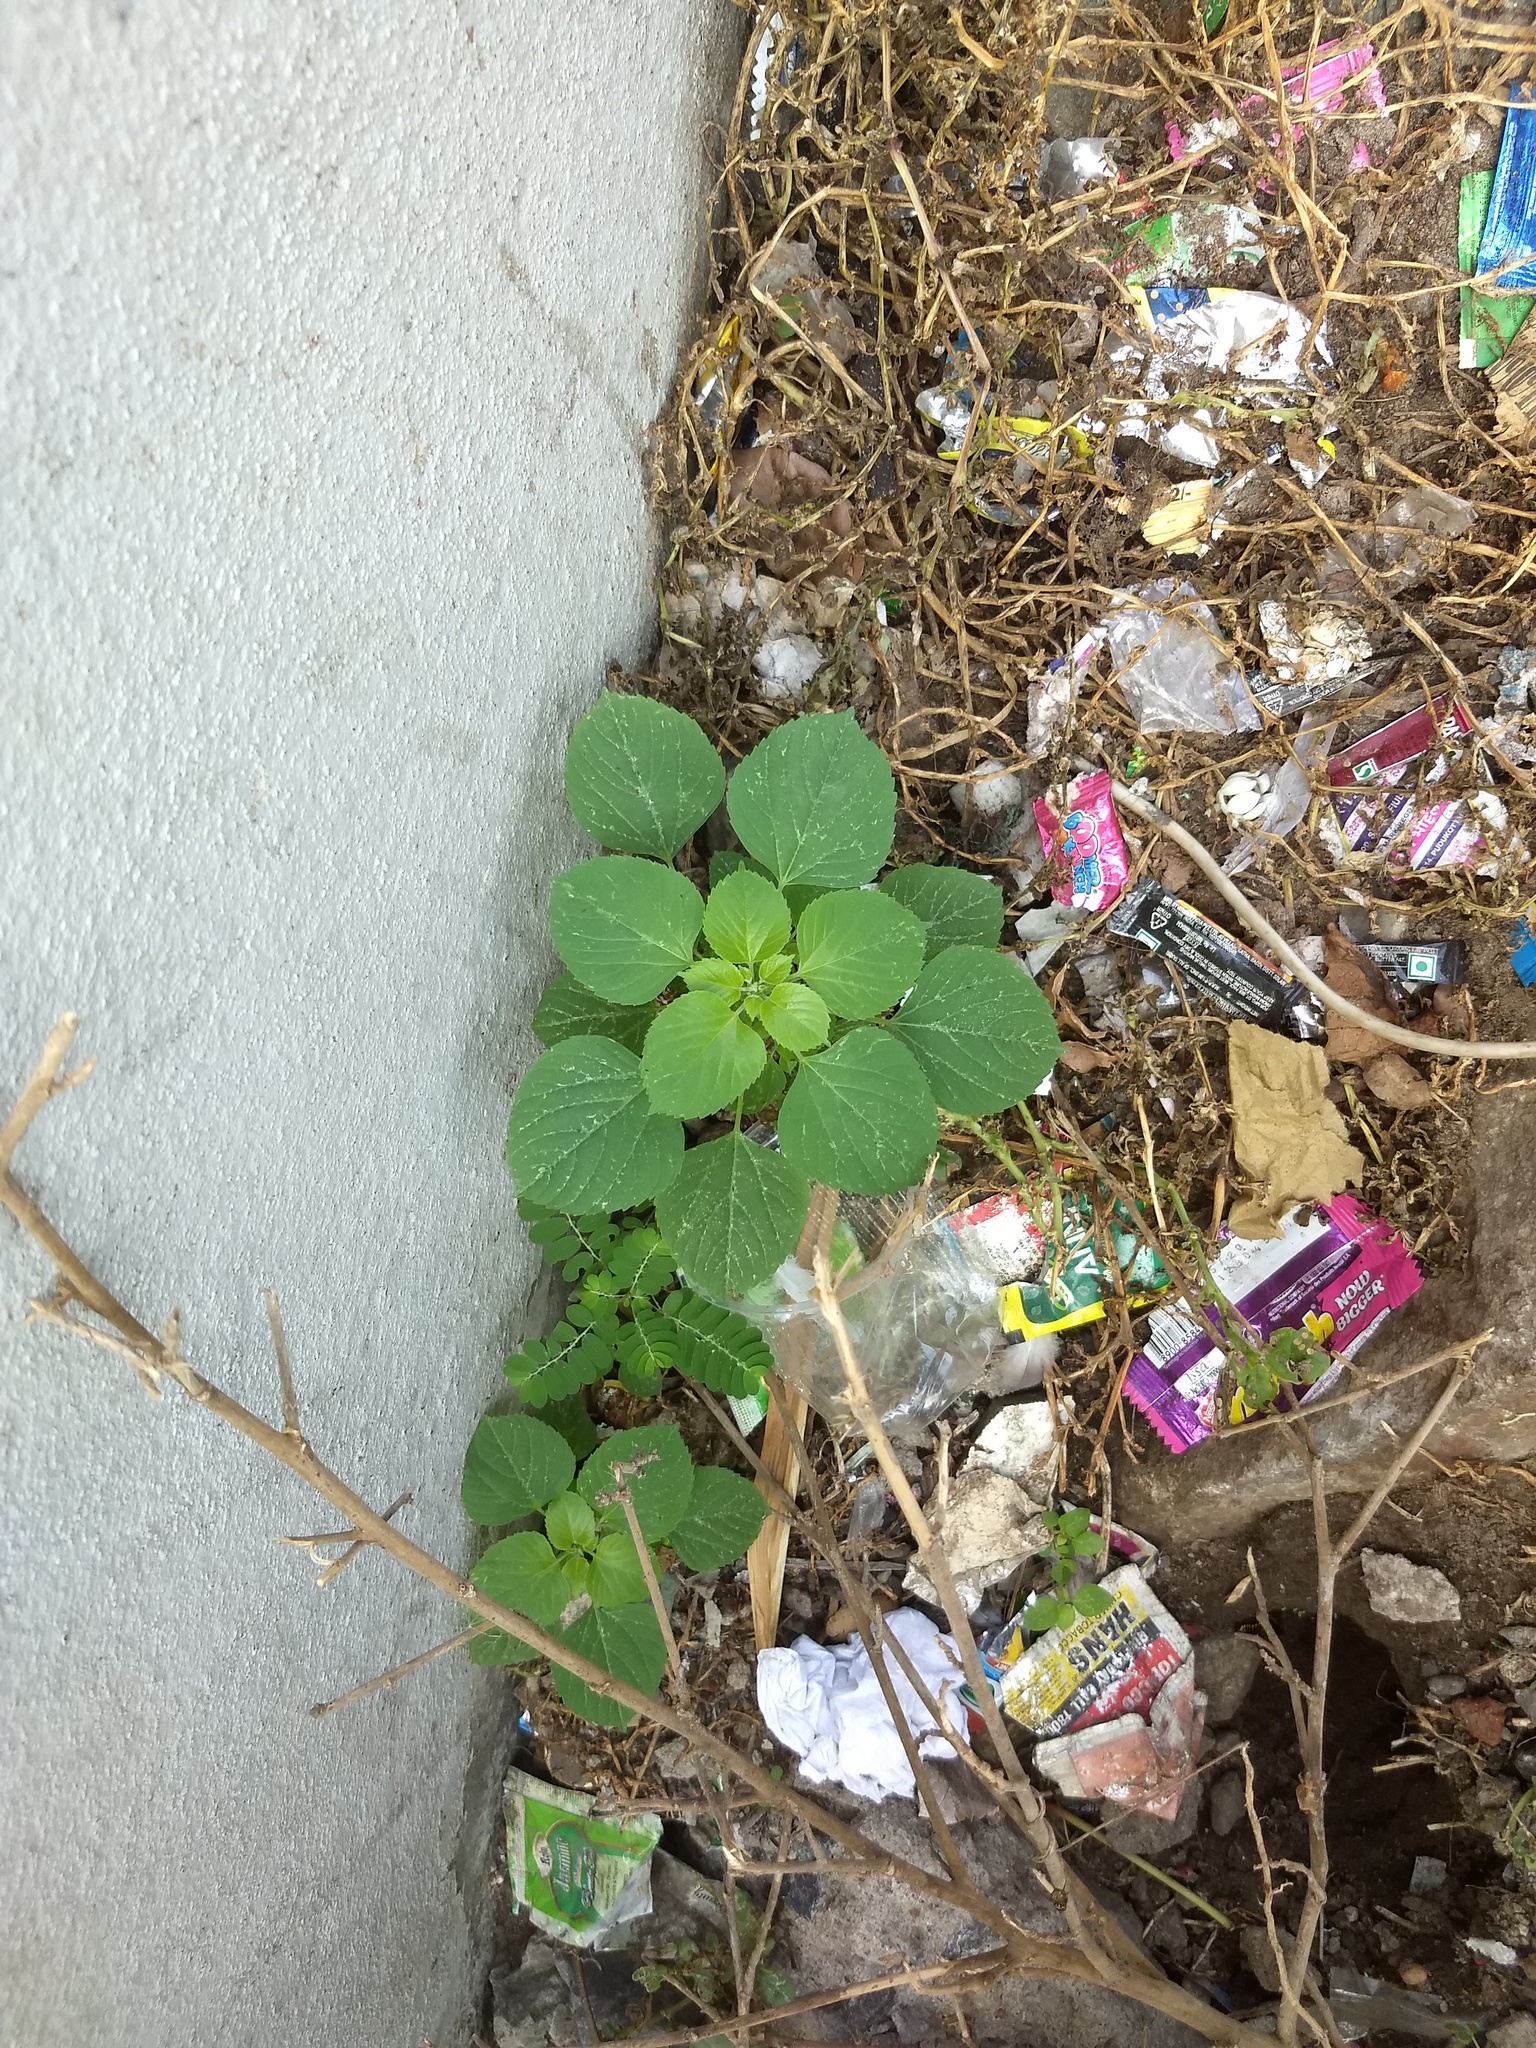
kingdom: Plantae
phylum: Tracheophyta
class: Magnoliopsida
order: Malpighiales
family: Euphorbiaceae
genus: Acalypha
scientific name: Acalypha indica
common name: Indian acalypha
